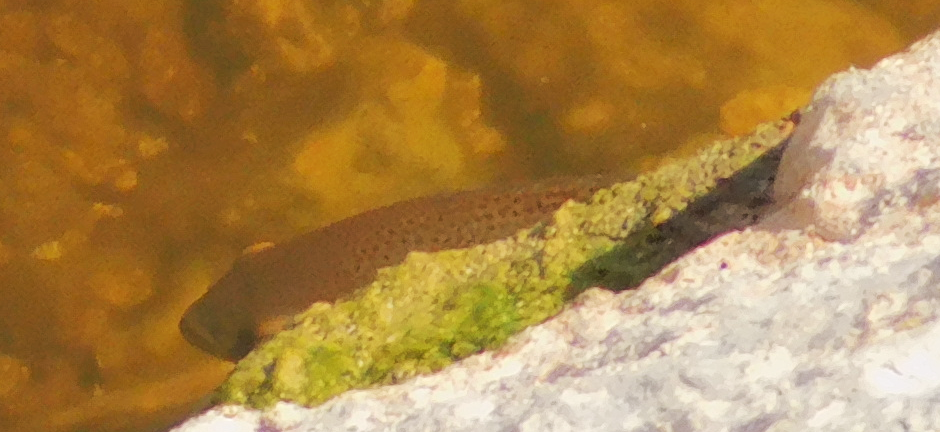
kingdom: Animalia
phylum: Chordata
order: Perciformes
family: Cichlidae
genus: Astronotus
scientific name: Astronotus ocellatus
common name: Oscar
